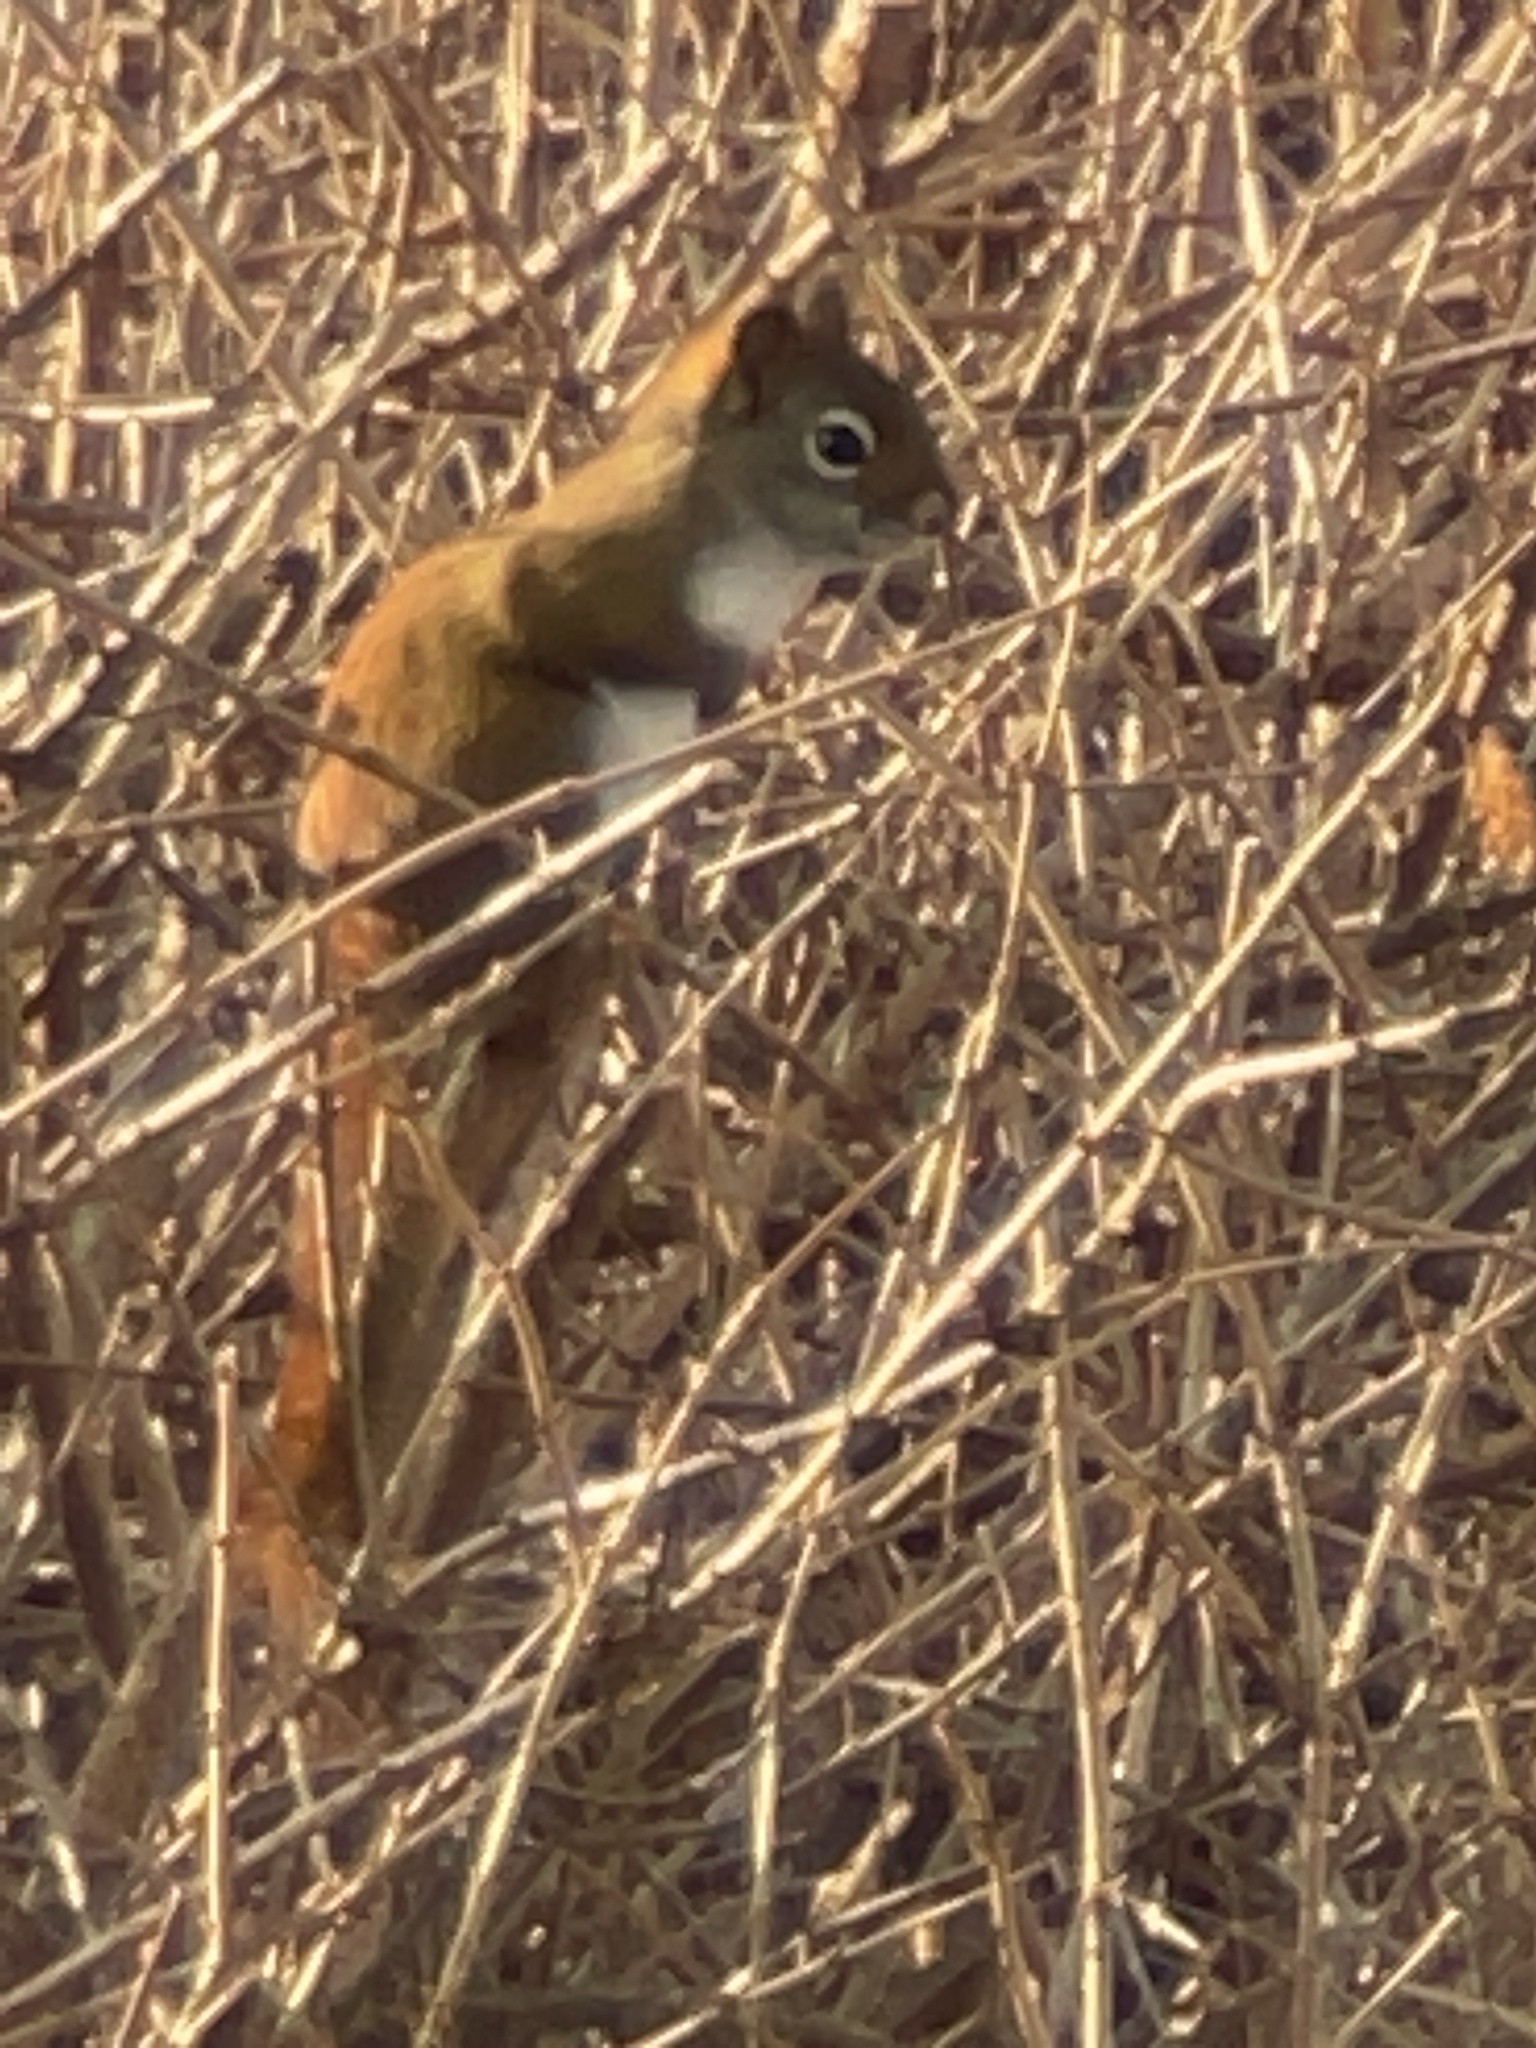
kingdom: Animalia
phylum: Chordata
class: Mammalia
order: Rodentia
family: Sciuridae
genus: Tamiasciurus
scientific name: Tamiasciurus hudsonicus
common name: Red squirrel
